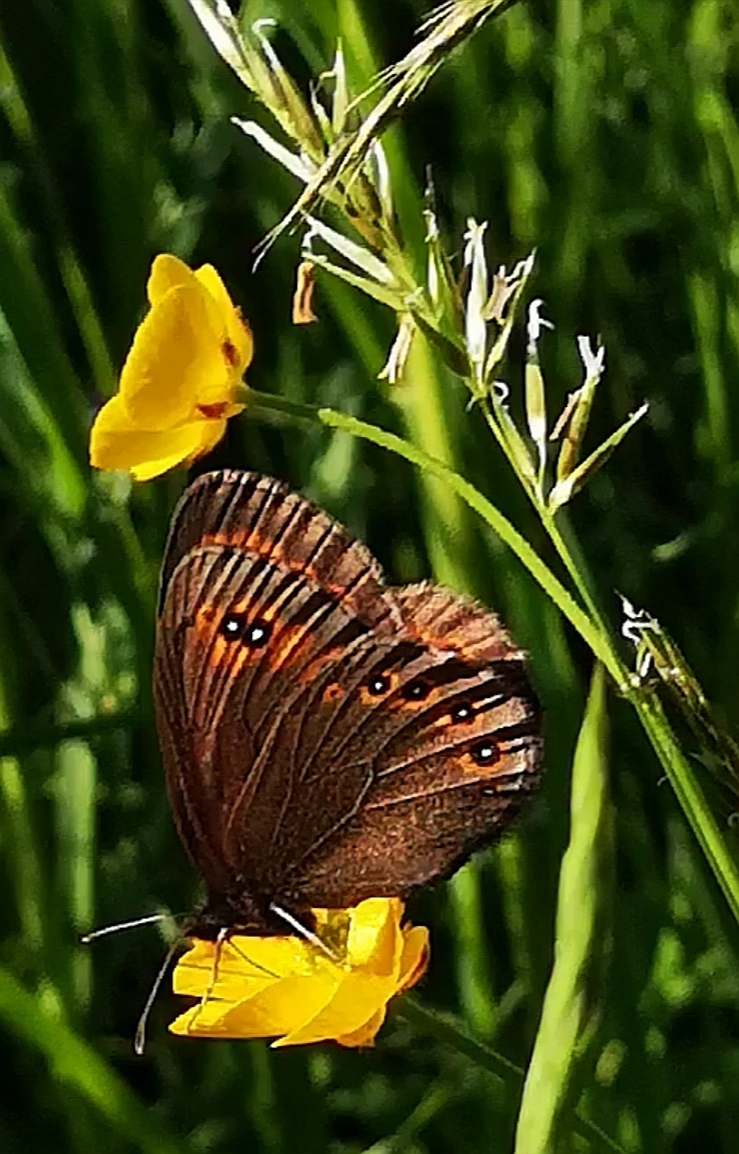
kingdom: Animalia
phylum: Arthropoda
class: Insecta
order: Lepidoptera
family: Nymphalidae
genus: Erebia
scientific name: Erebia medusa
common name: Woodland ringlet
